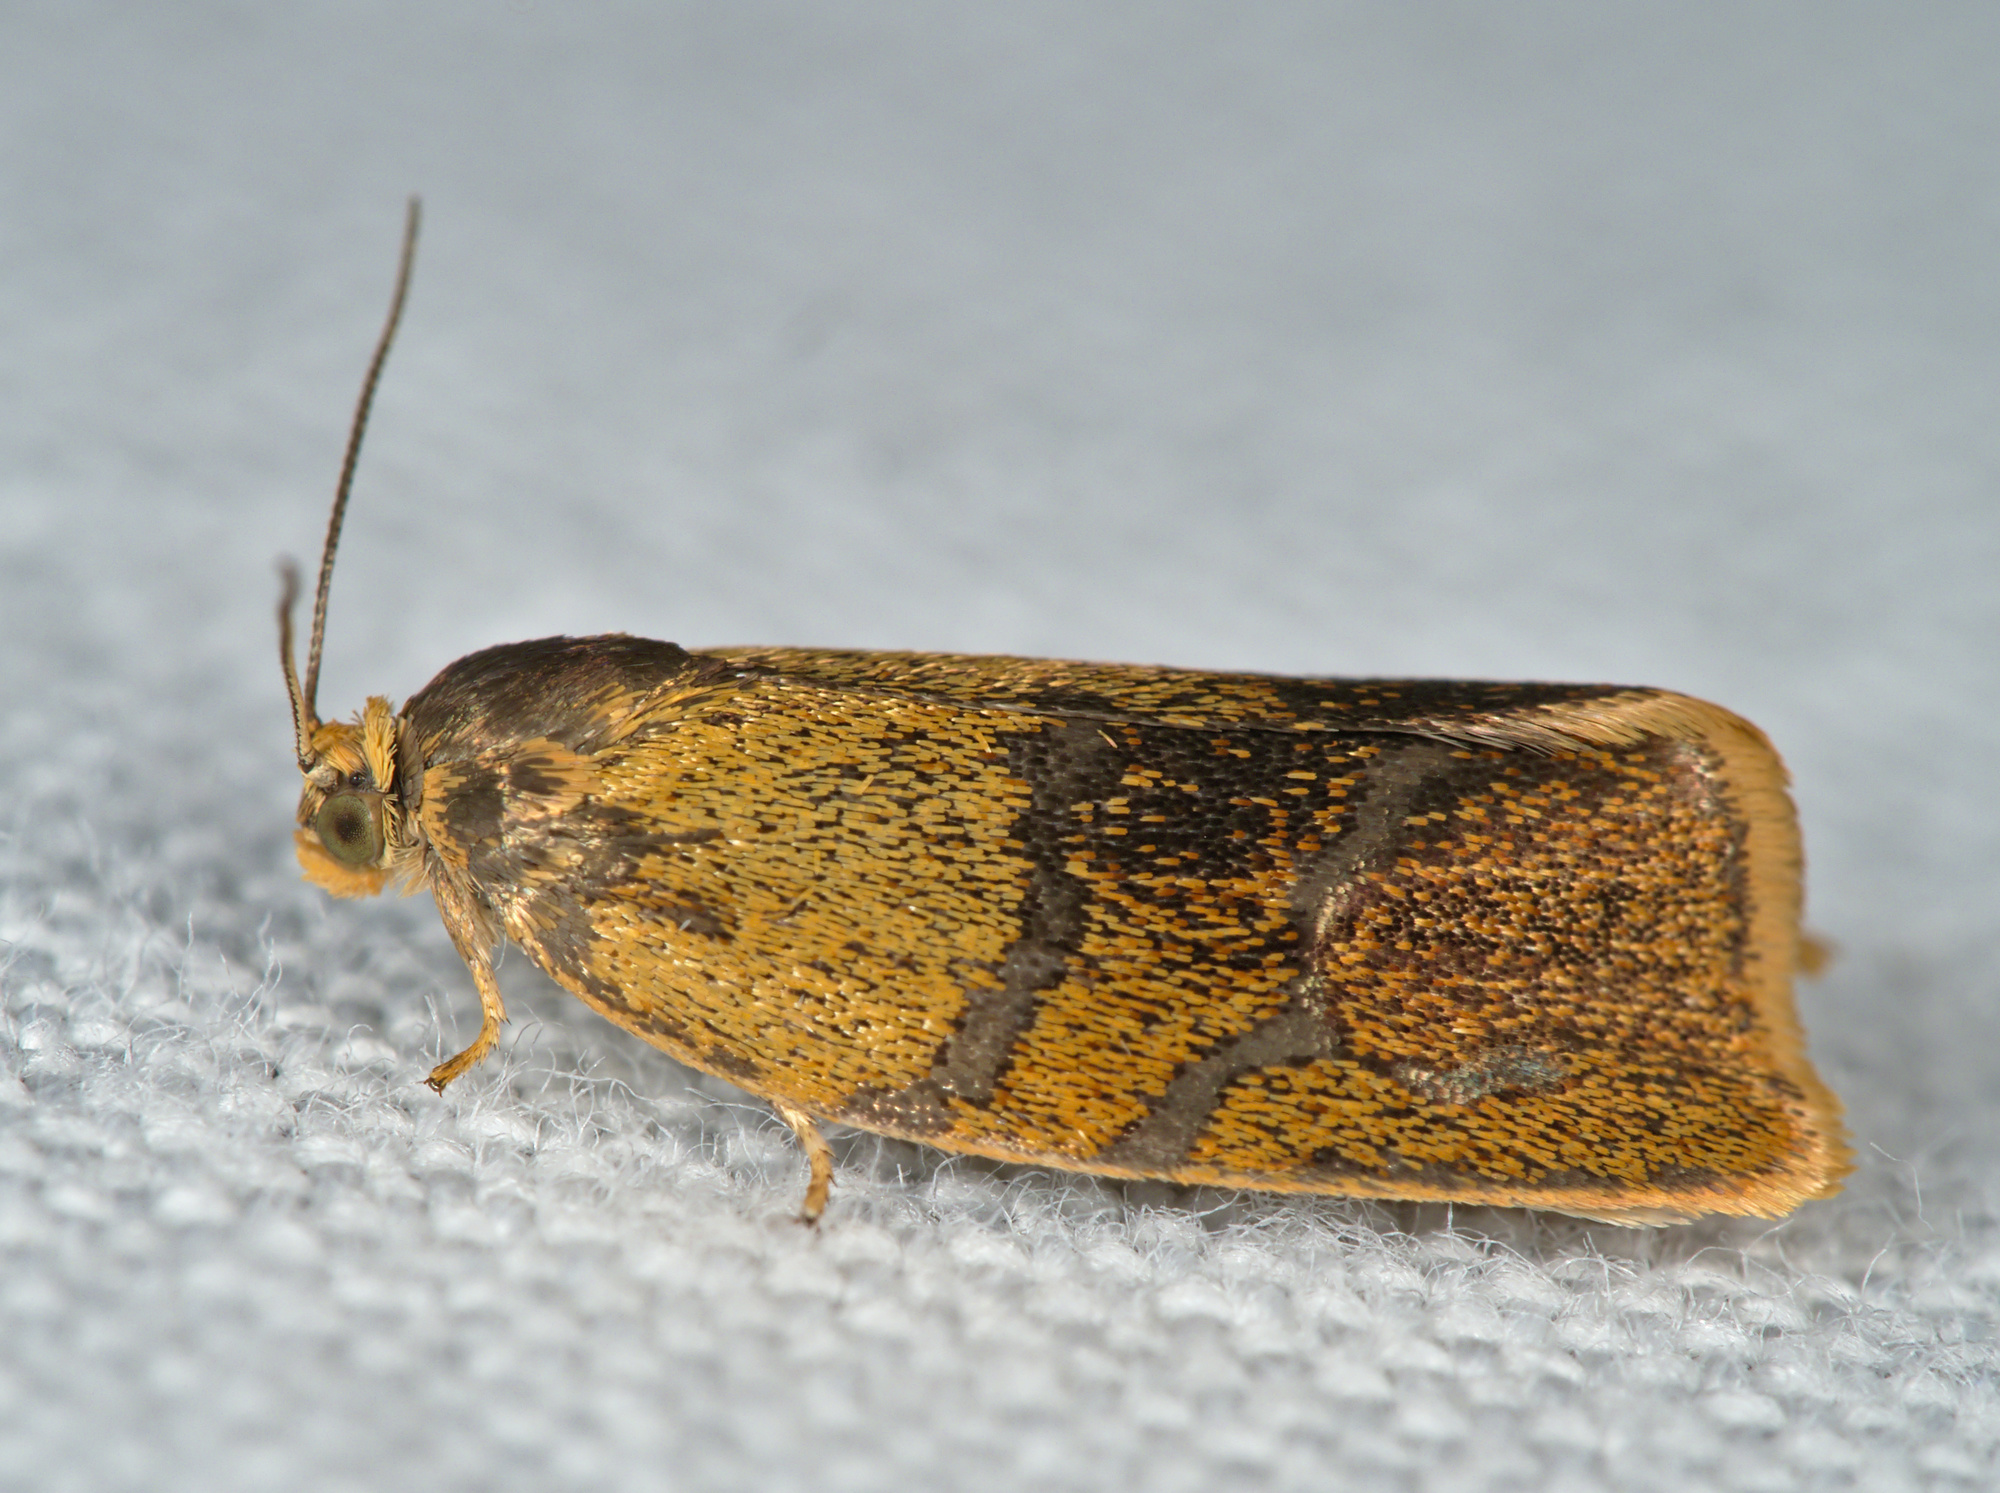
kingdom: Animalia
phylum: Arthropoda
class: Insecta
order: Lepidoptera
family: Tortricidae
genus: Ptycholoma
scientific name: Ptycholoma lecheana
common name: Leches twist moth
